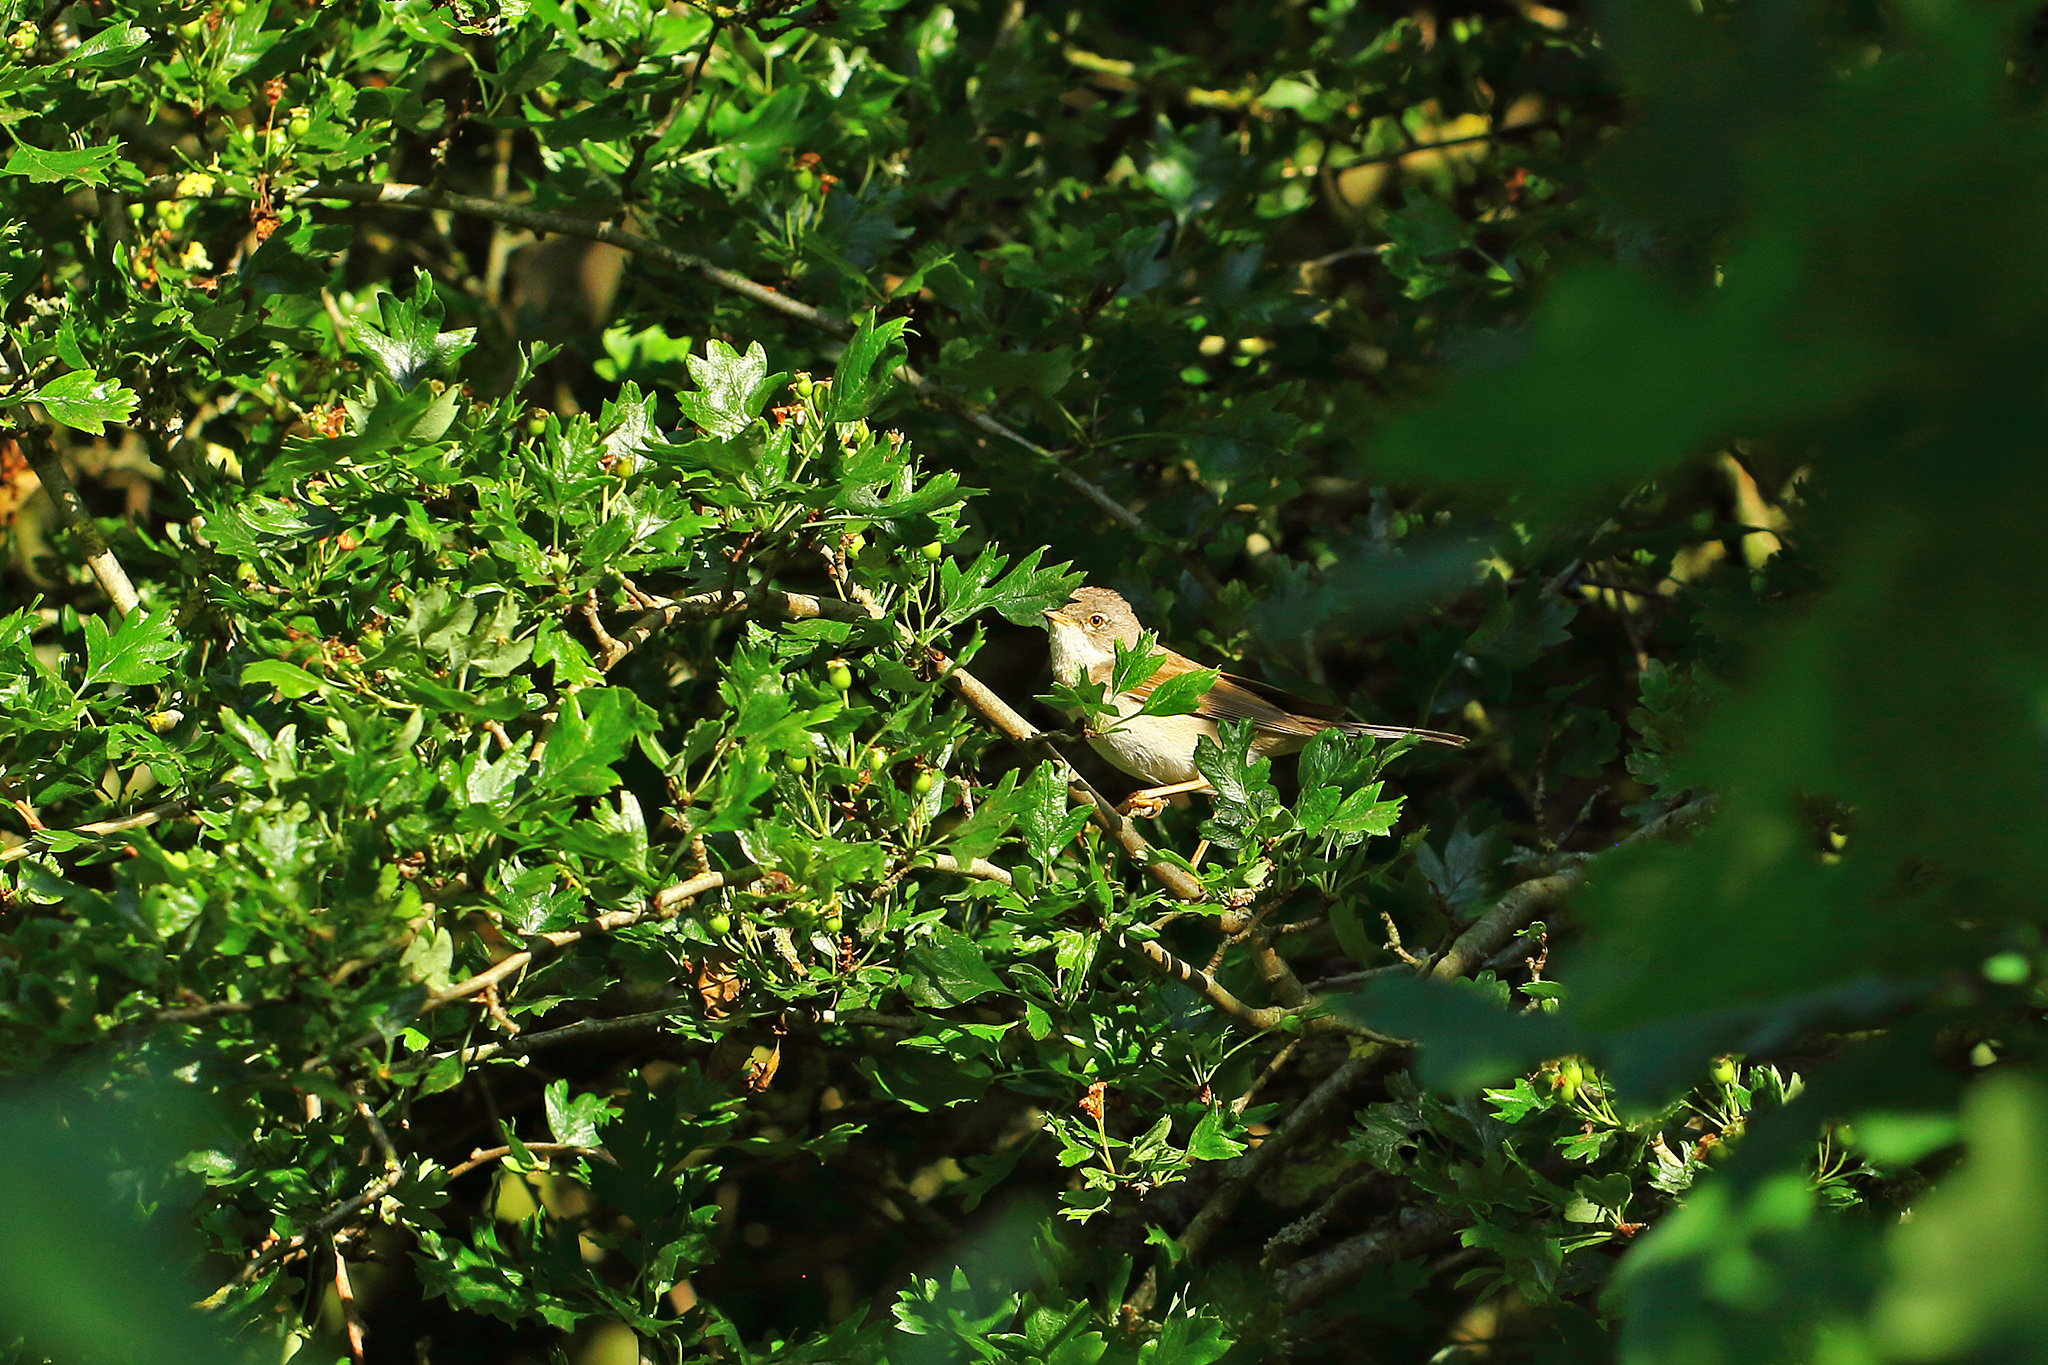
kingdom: Animalia
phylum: Chordata
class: Aves
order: Passeriformes
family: Sylviidae
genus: Sylvia
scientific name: Sylvia communis
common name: Common whitethroat
